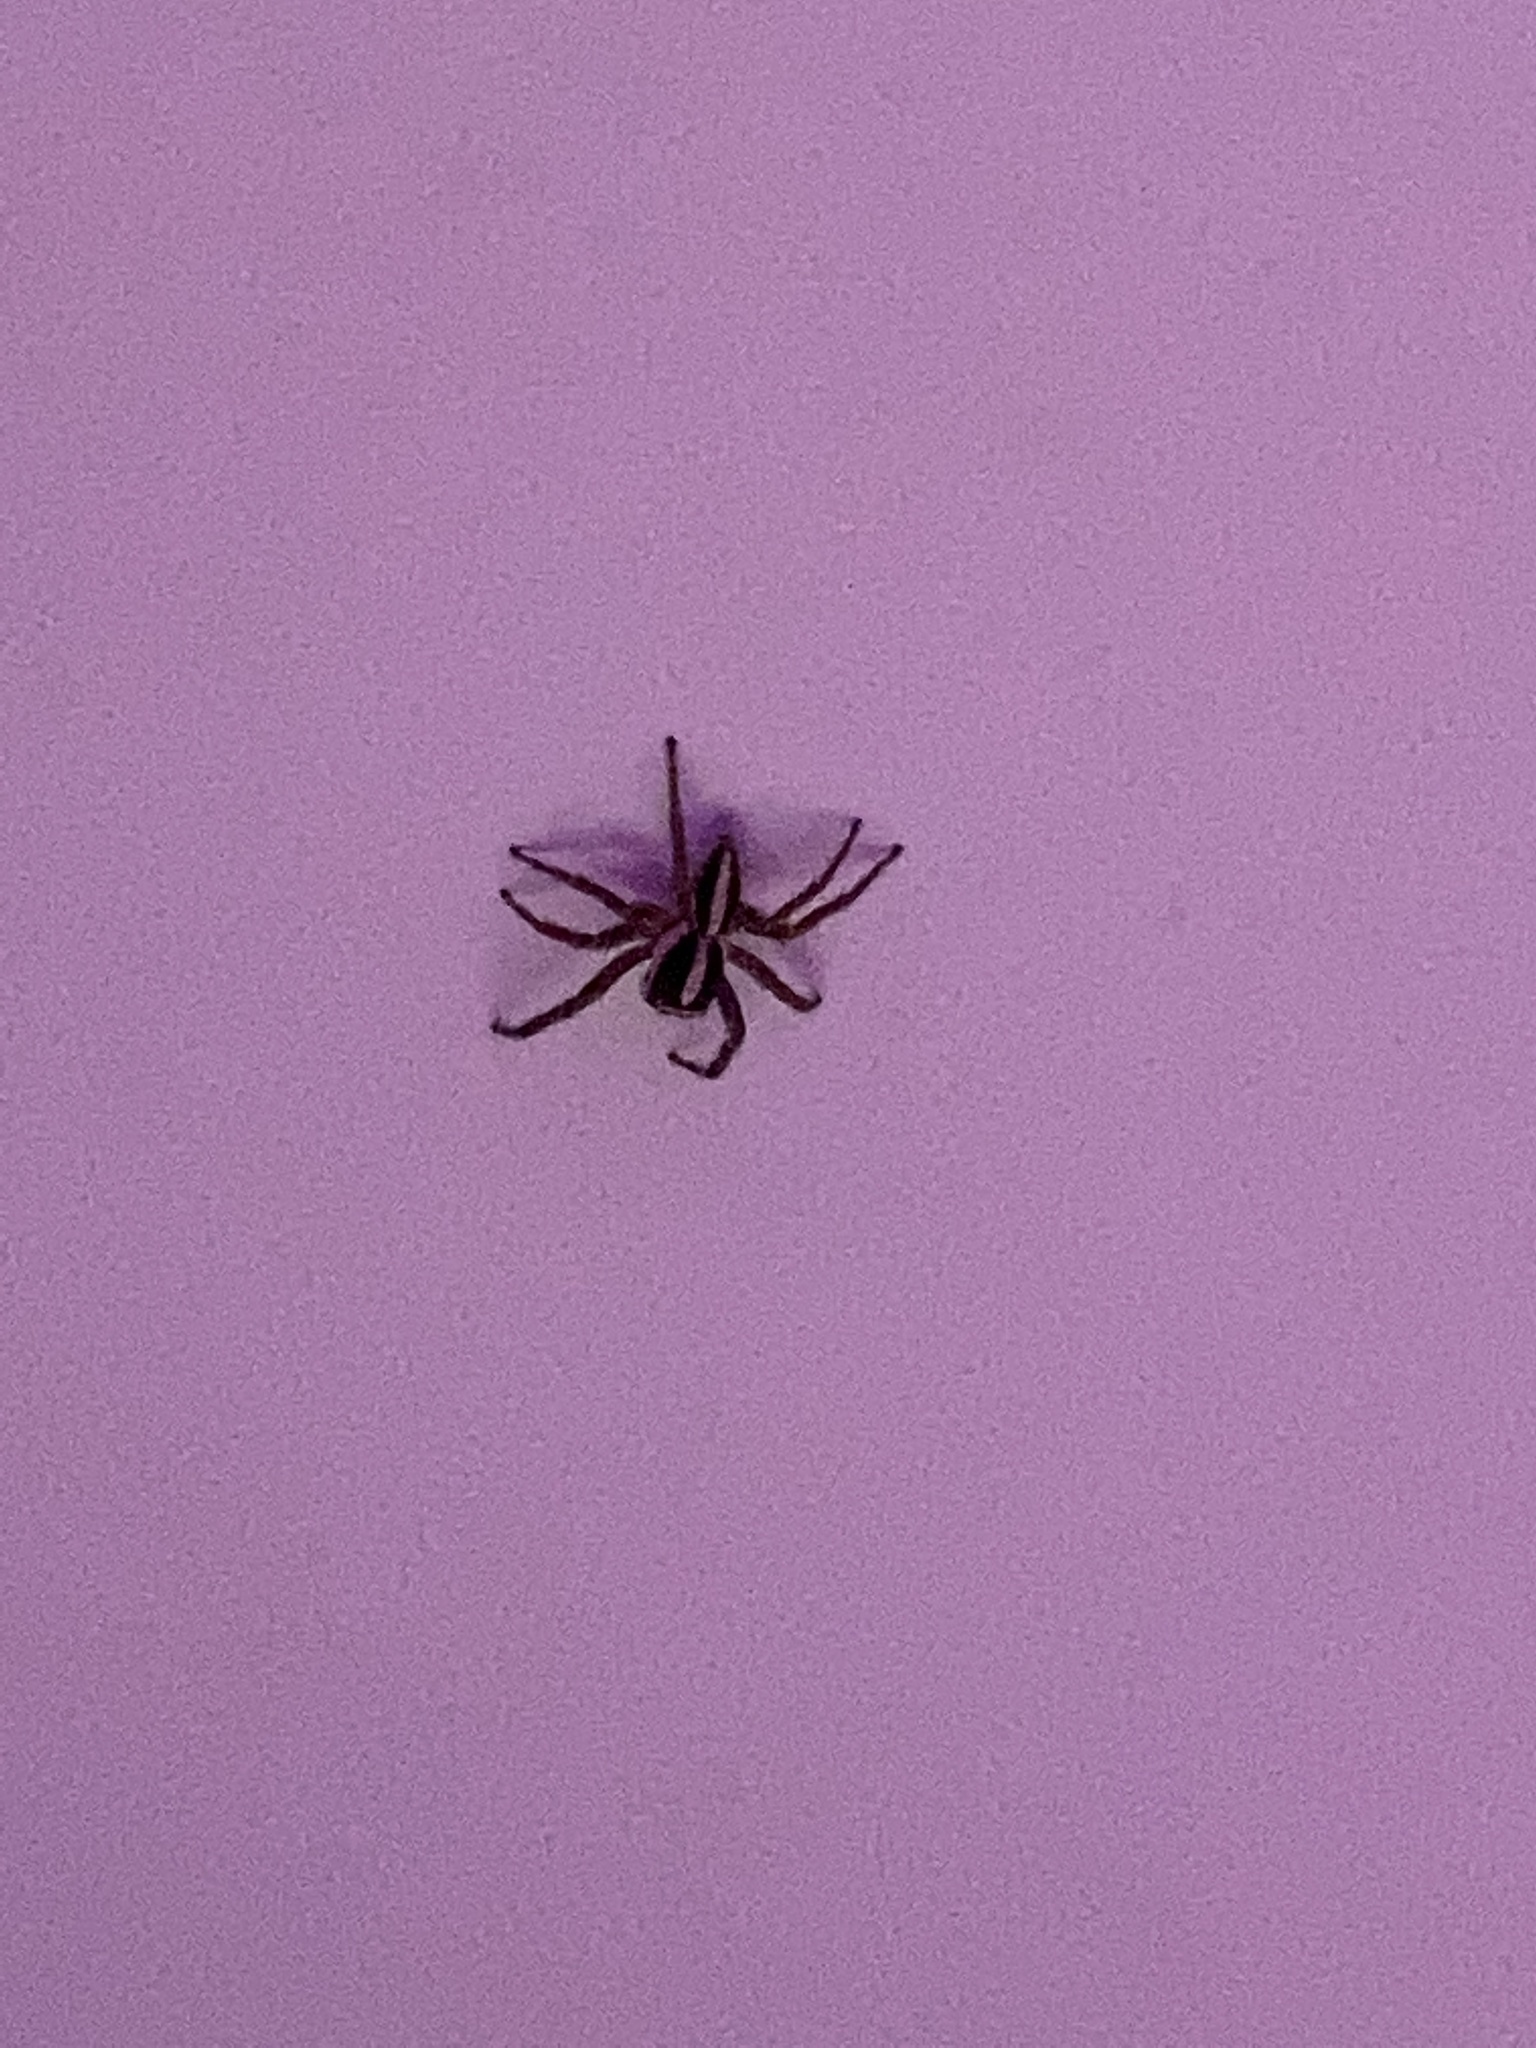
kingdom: Animalia
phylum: Arthropoda
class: Arachnida
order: Araneae
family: Salticidae
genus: Plexippus
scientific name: Plexippus paykulli
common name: Pantropical jumper
